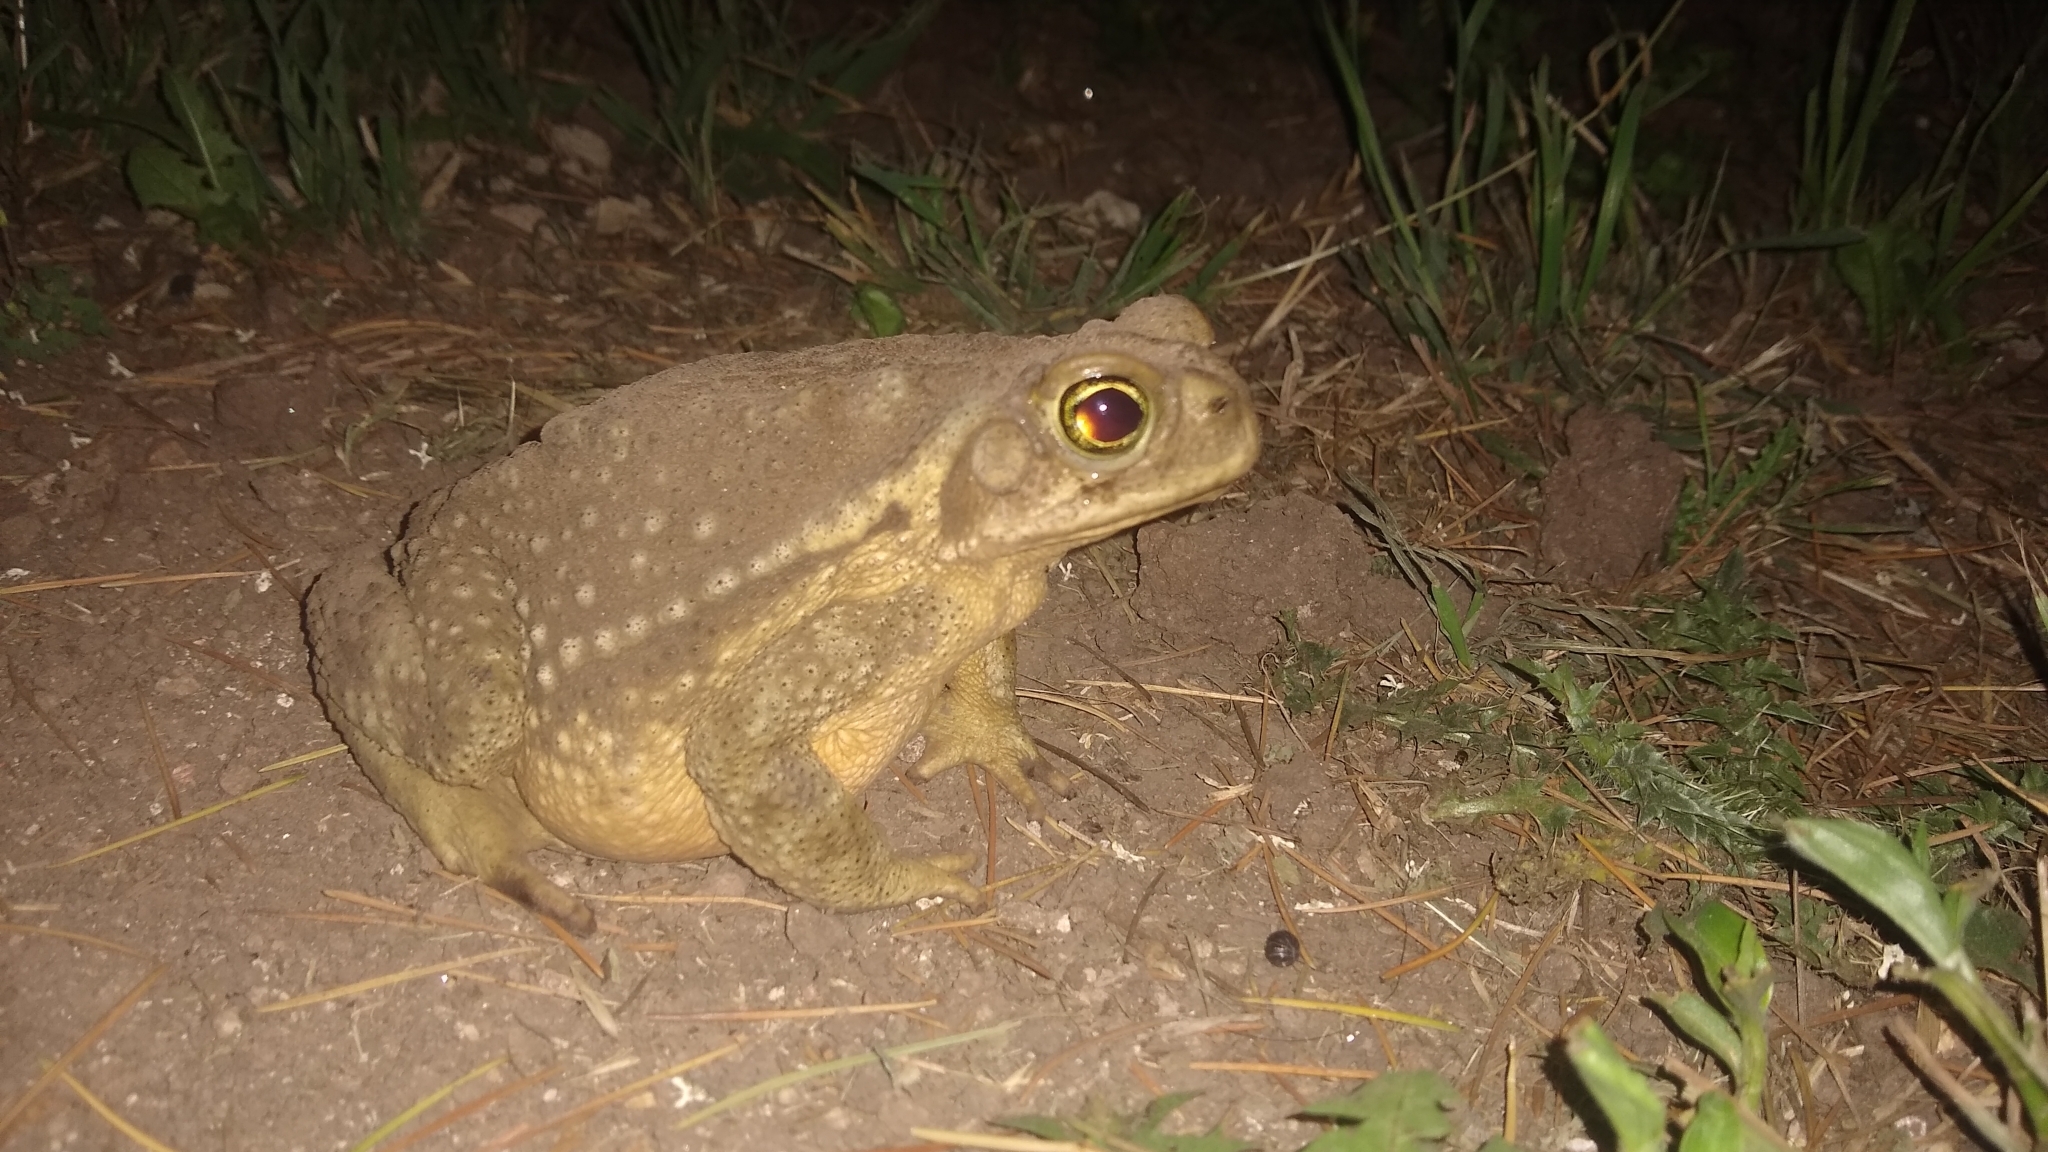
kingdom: Animalia
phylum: Chordata
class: Amphibia
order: Anura
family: Bufonidae
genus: Rhinella
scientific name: Rhinella arenarum
